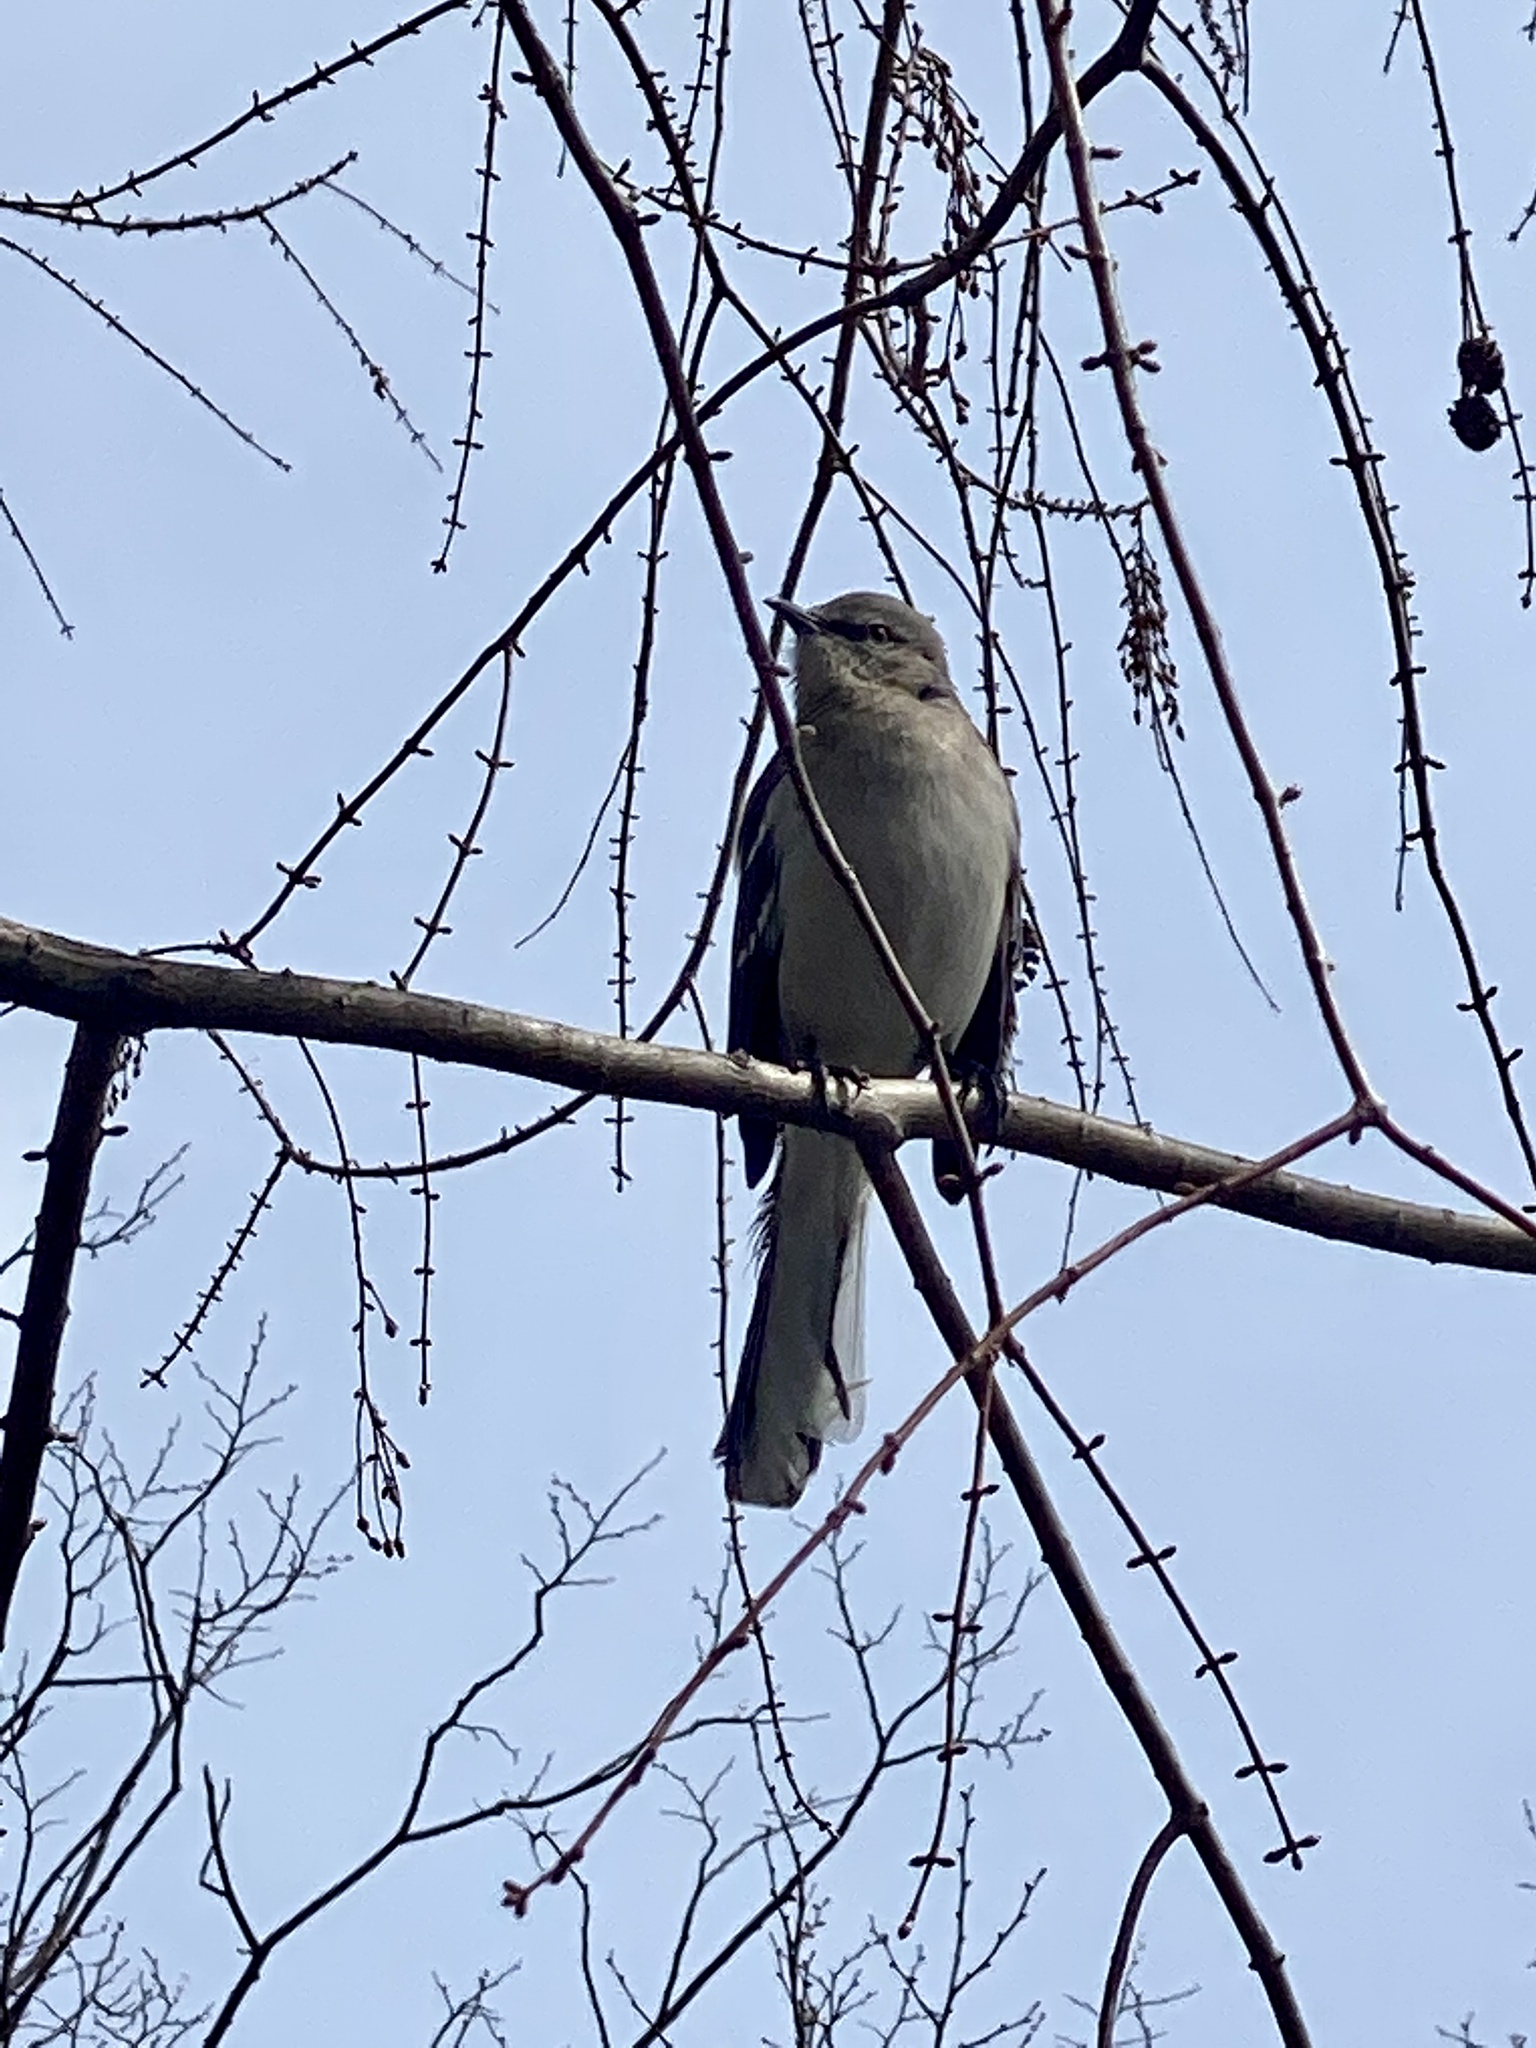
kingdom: Animalia
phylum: Chordata
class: Aves
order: Passeriformes
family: Mimidae
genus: Mimus
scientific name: Mimus polyglottos
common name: Northern mockingbird
